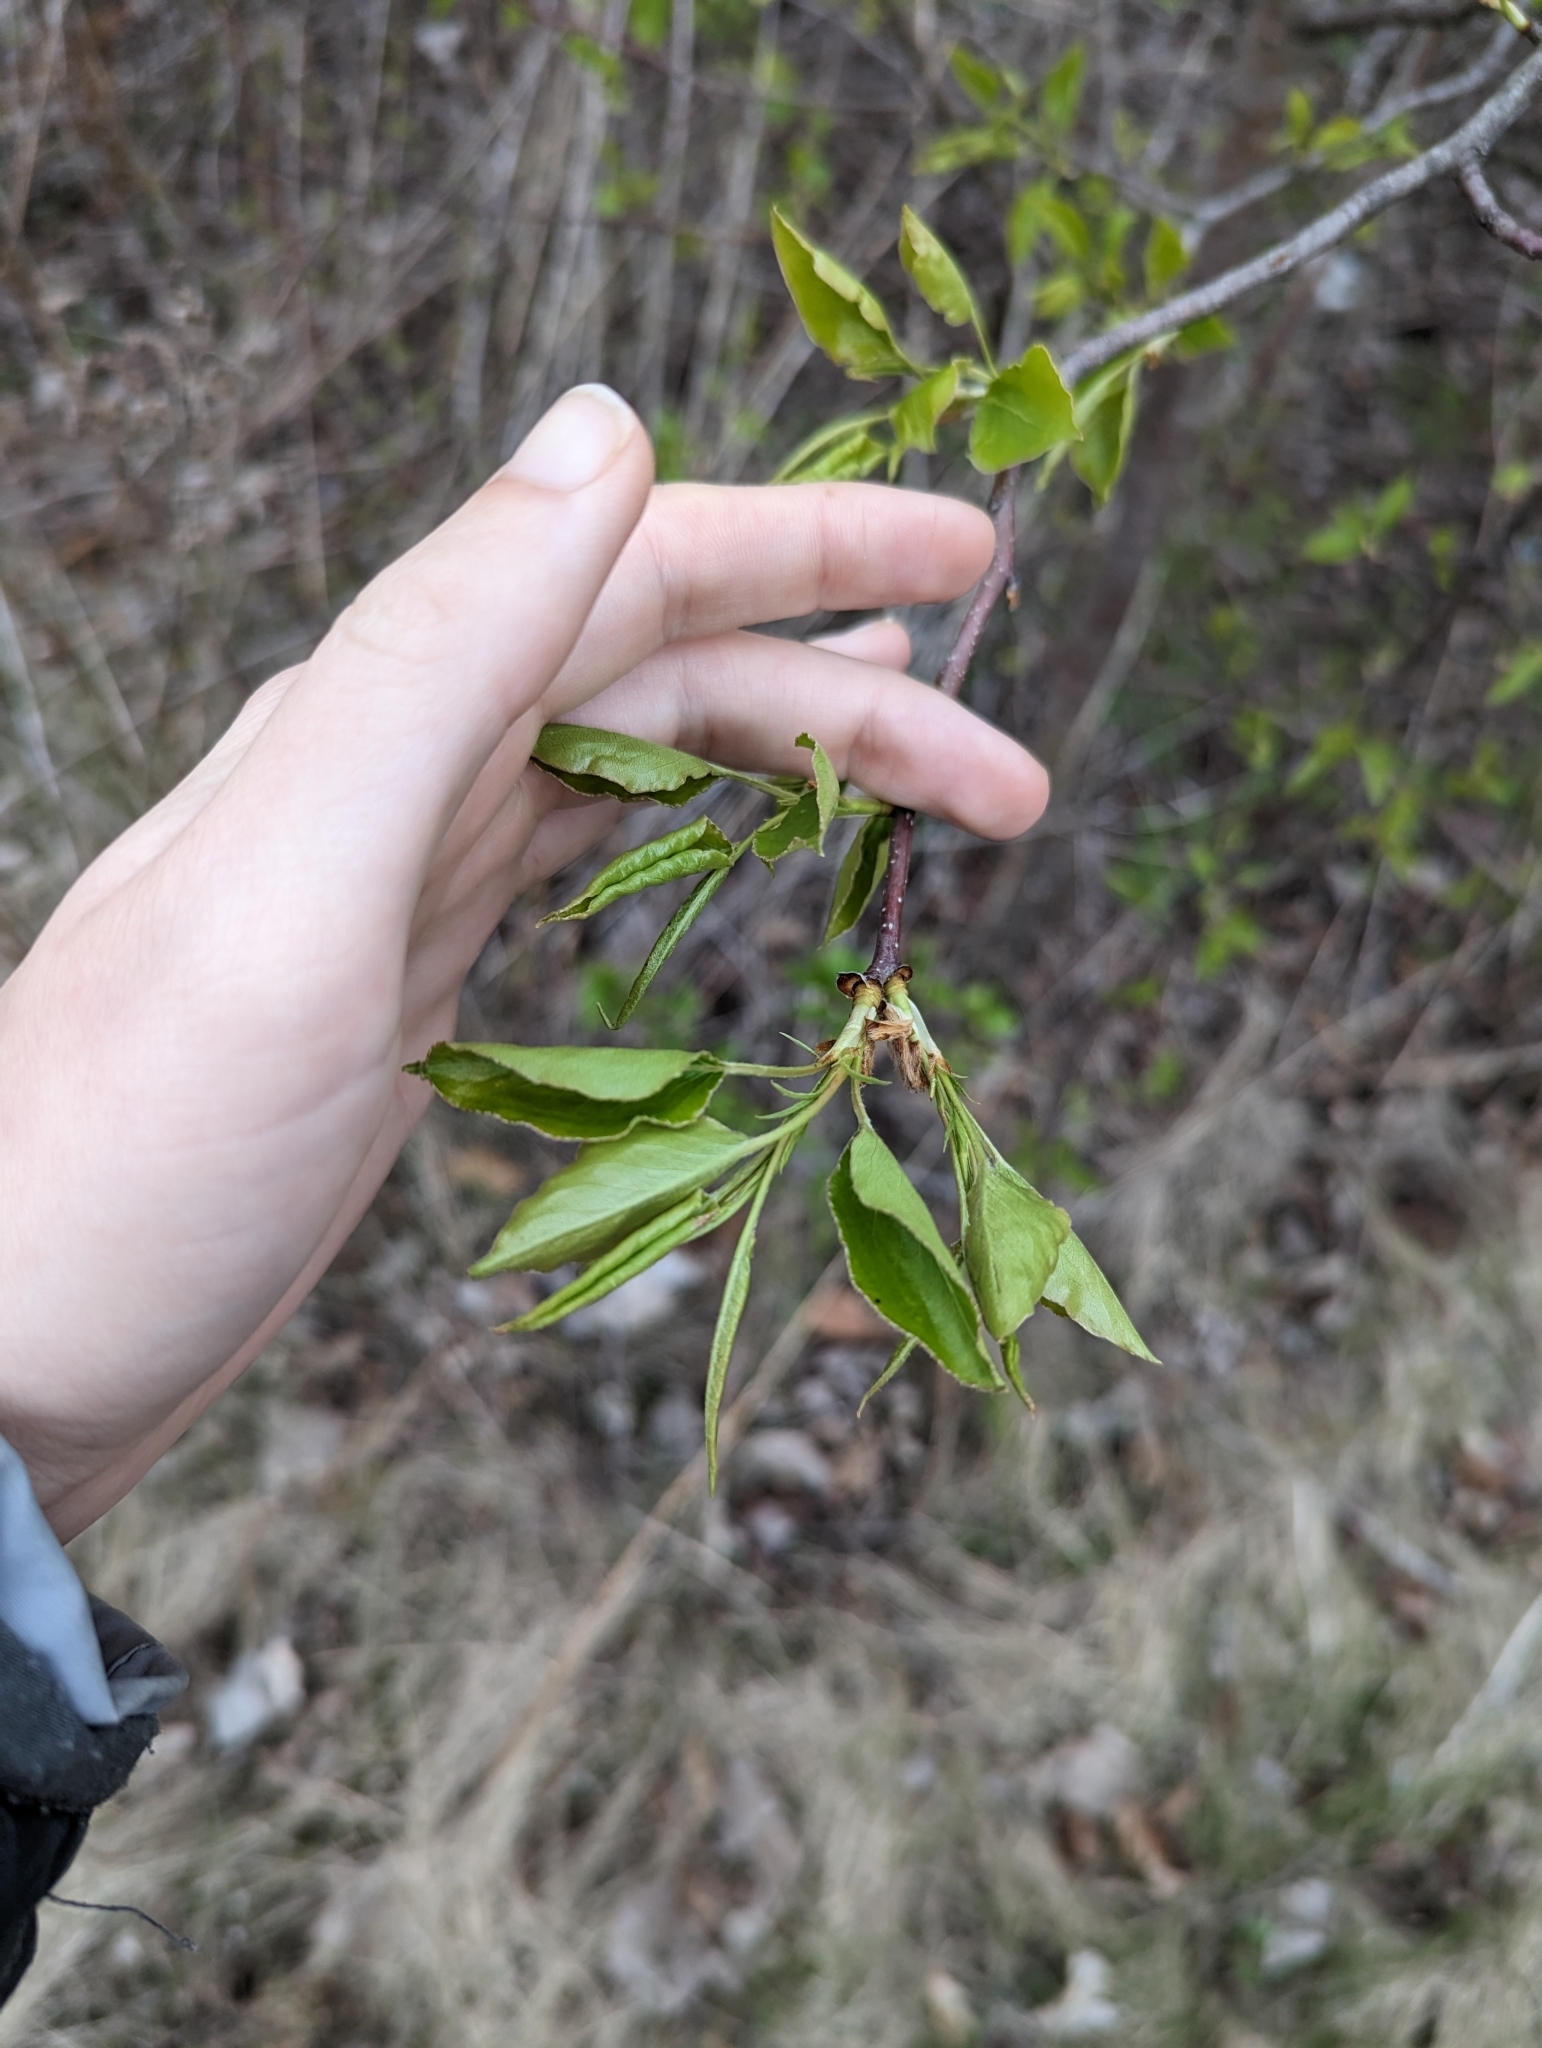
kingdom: Plantae
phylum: Tracheophyta
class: Magnoliopsida
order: Rosales
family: Rosaceae
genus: Pyrus
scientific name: Pyrus calleryana
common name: Callery pear
